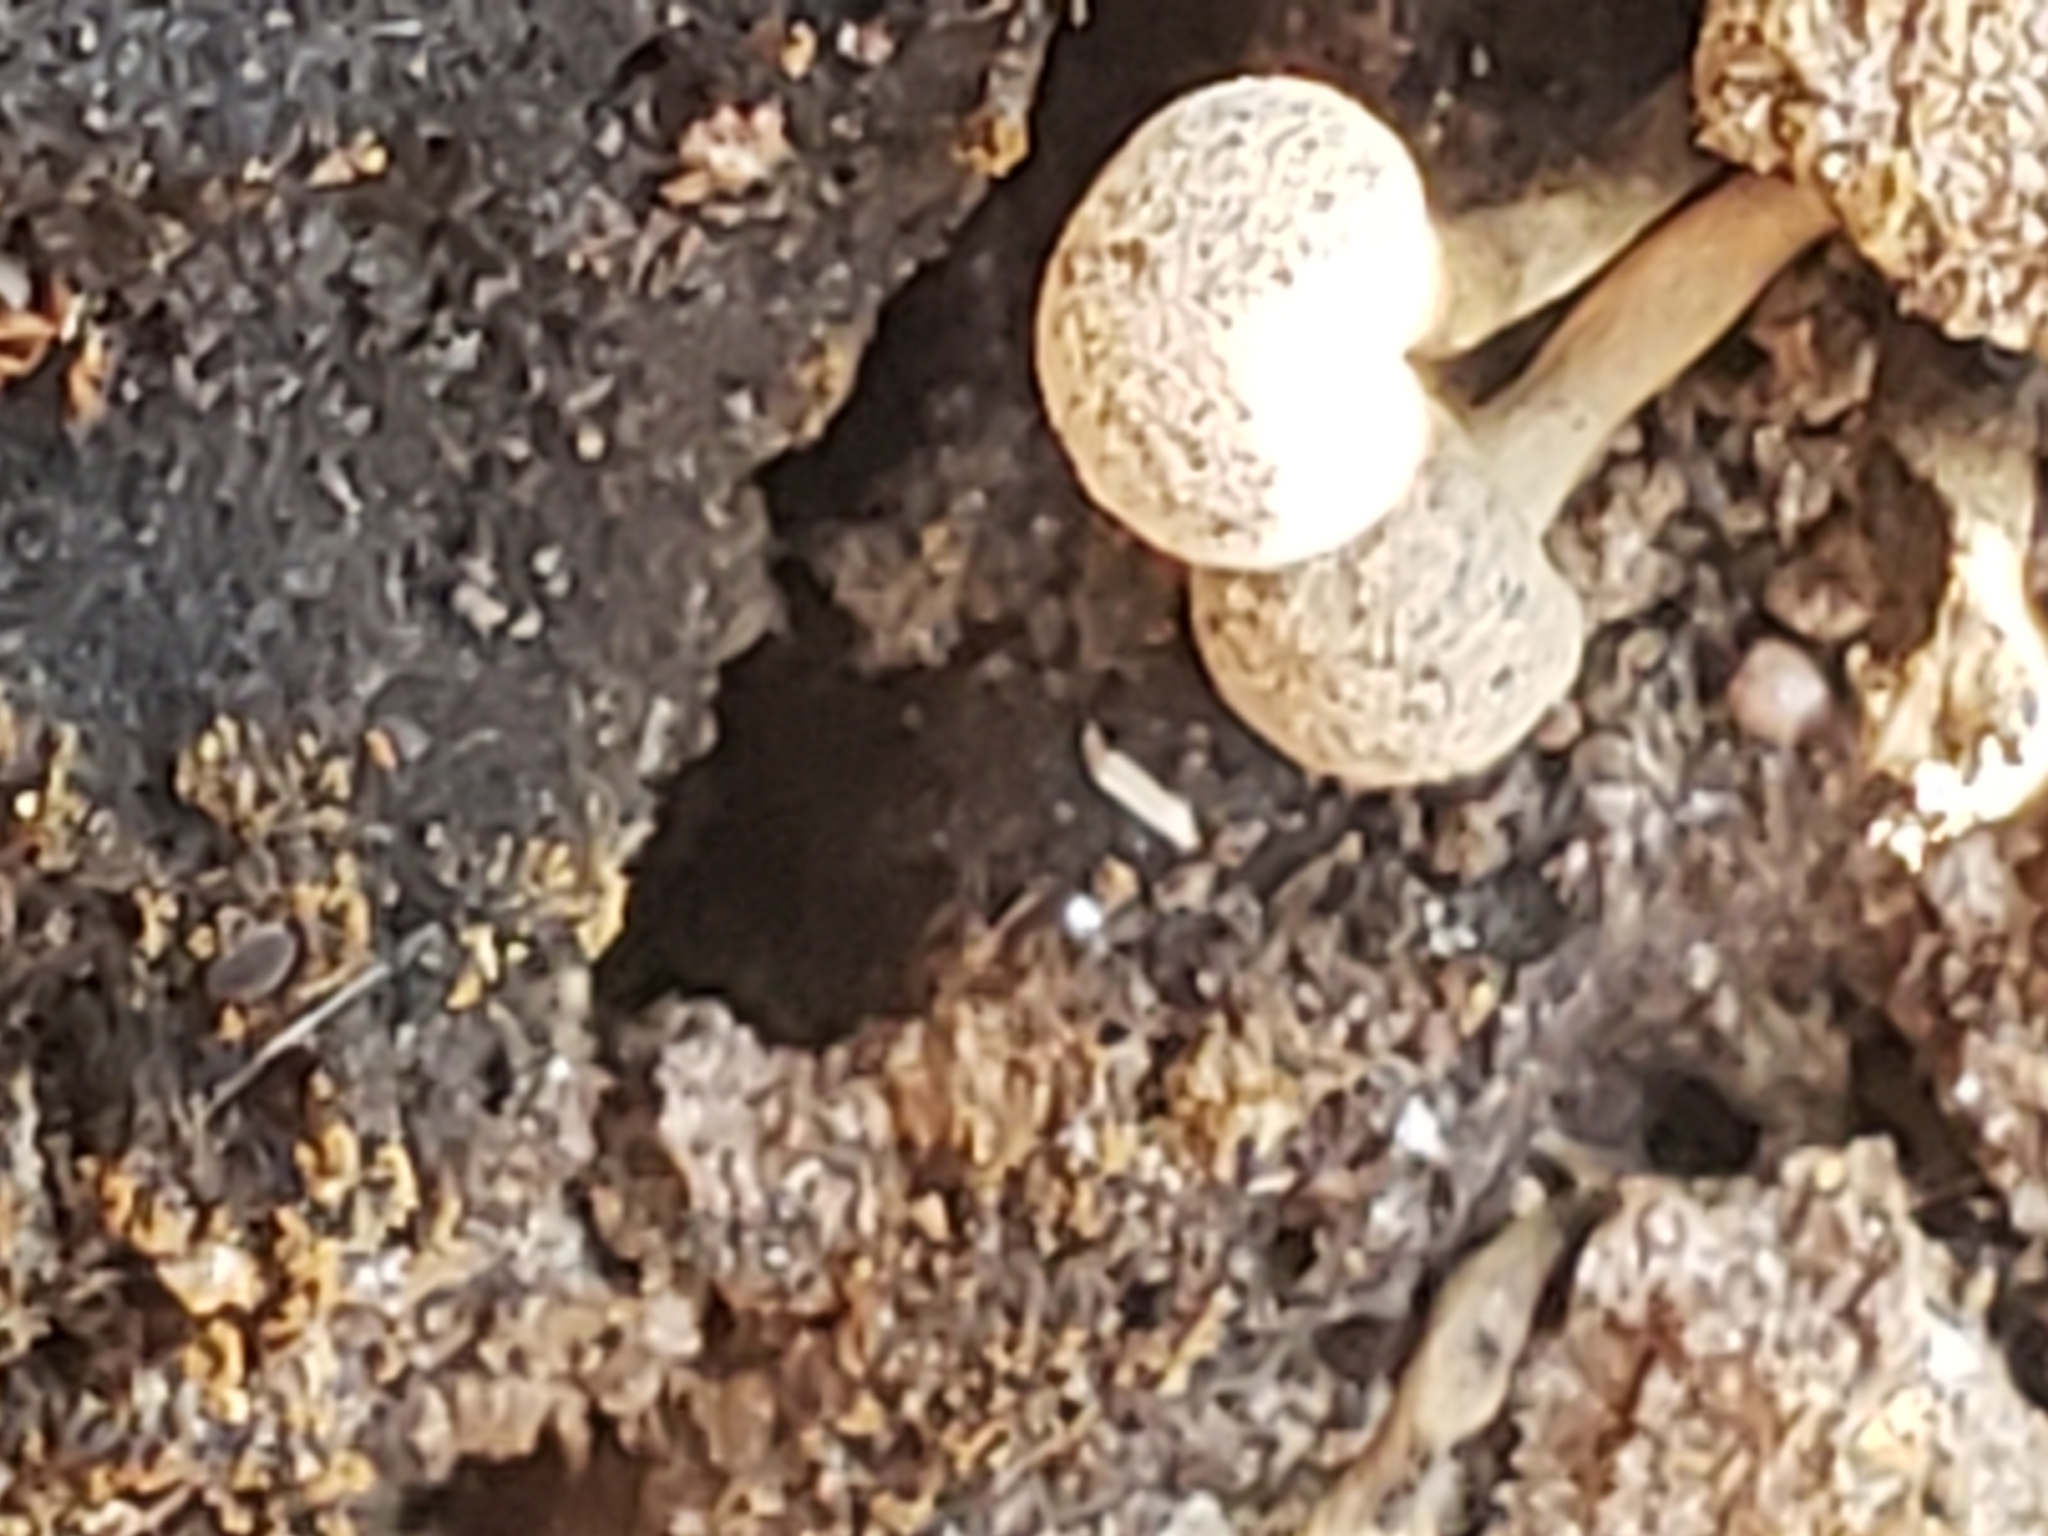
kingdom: Fungi
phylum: Basidiomycota
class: Atractiellomycetes
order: Atractiellales
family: Phleogenaceae
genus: Phleogena
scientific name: Phleogena faginea
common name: Fenugreek stalkball
